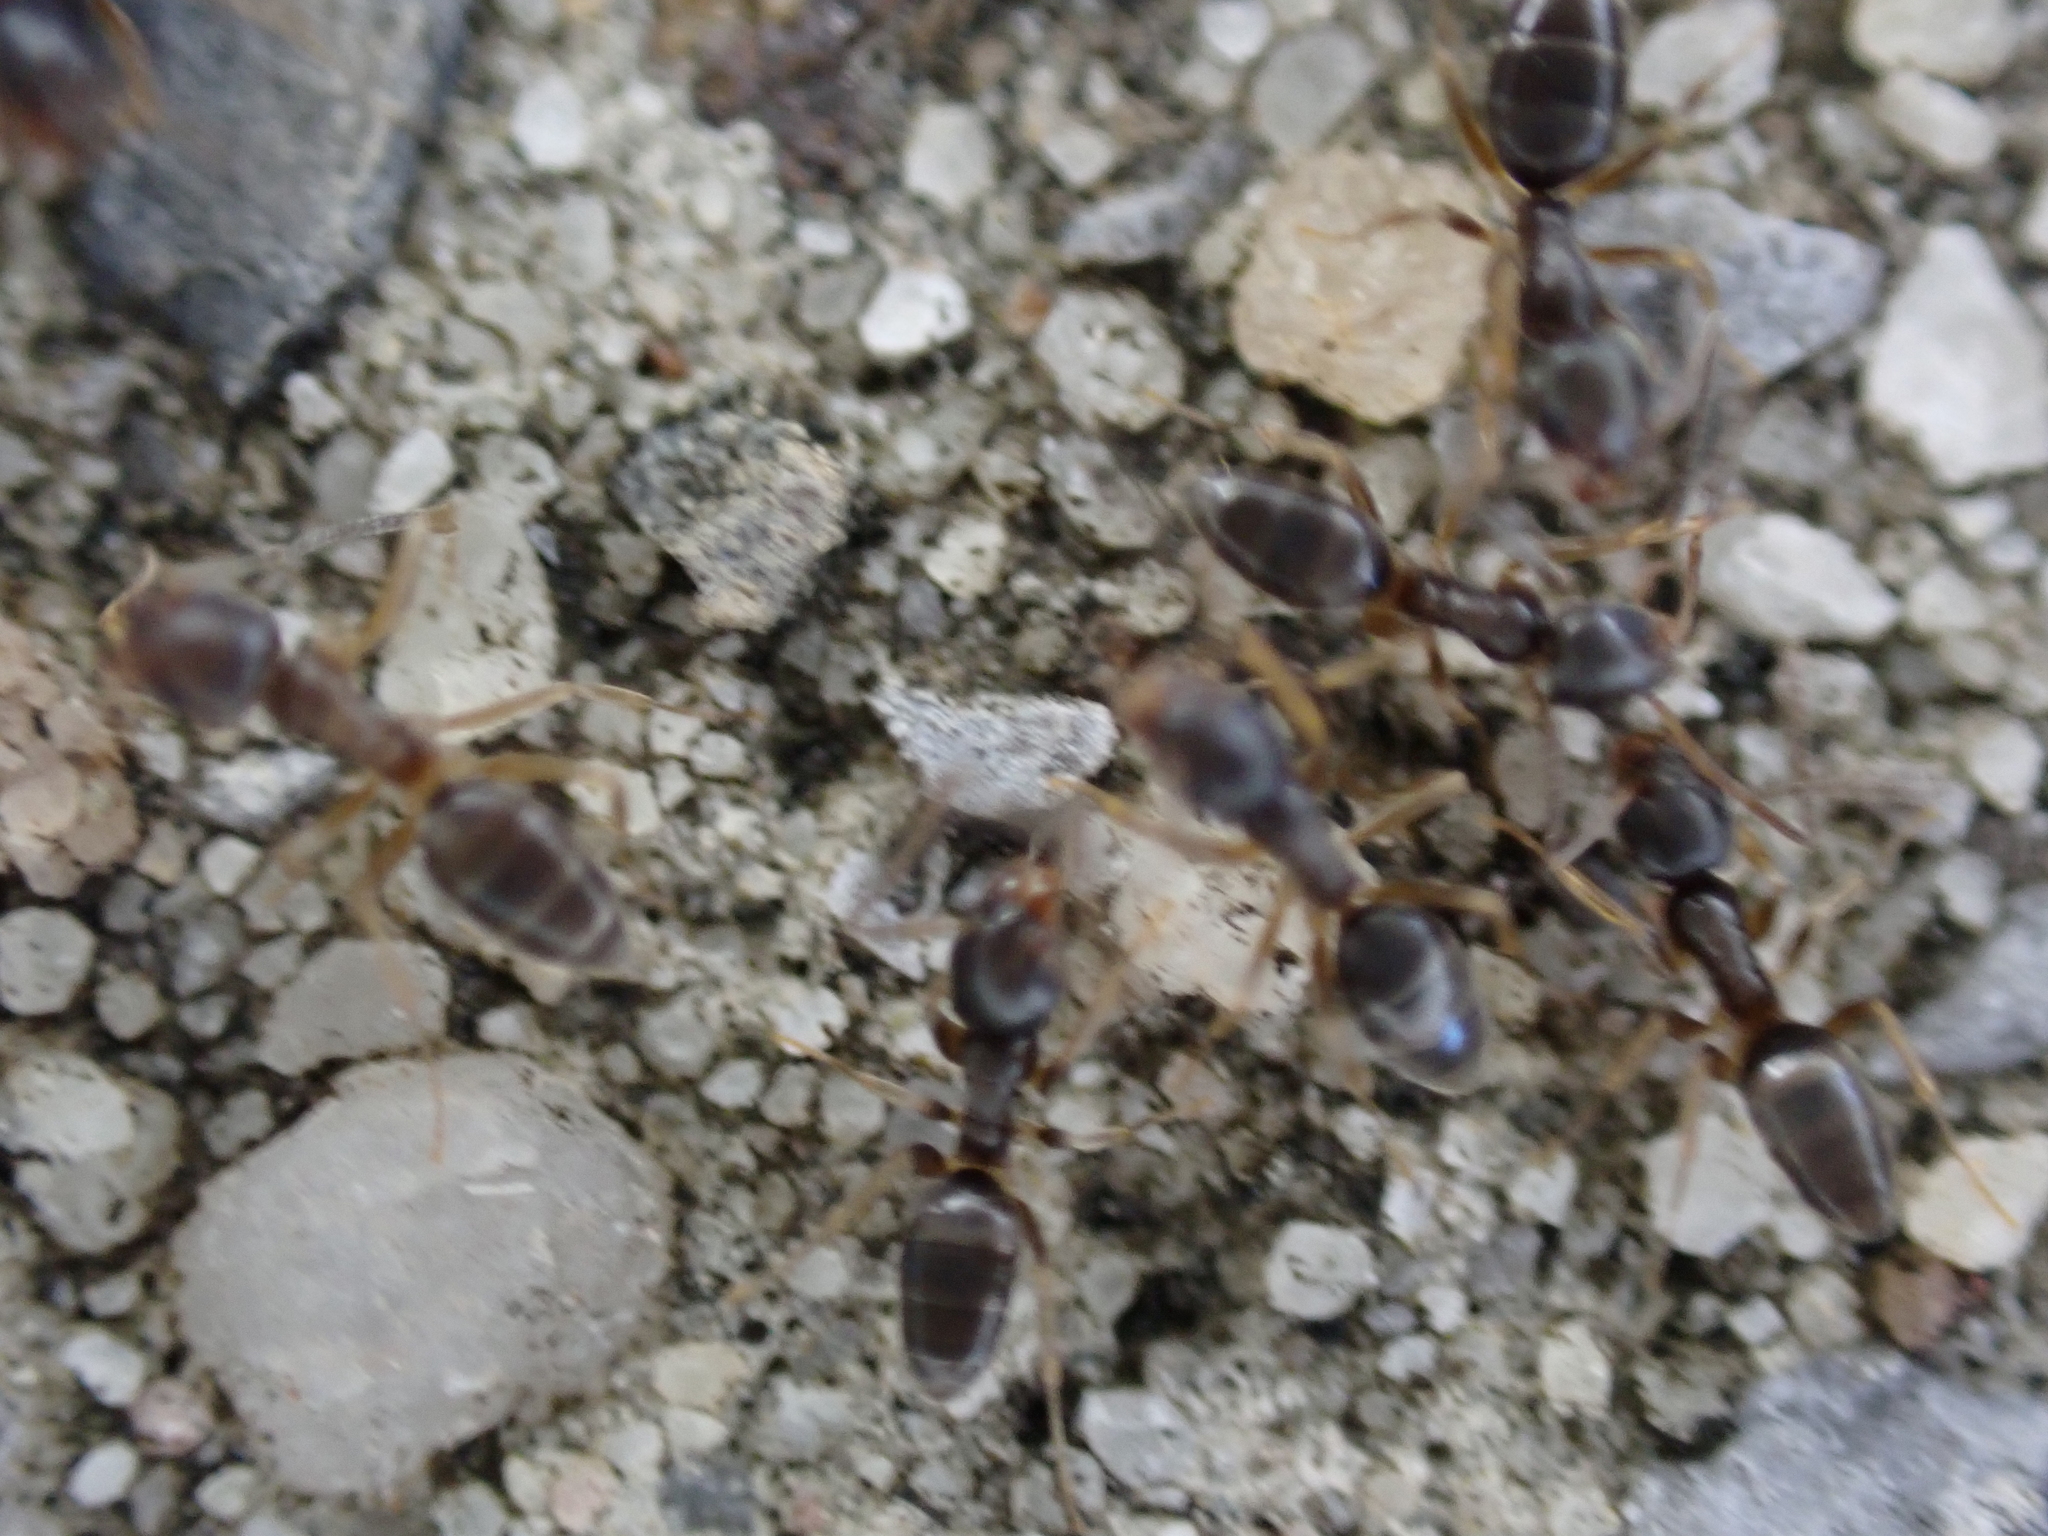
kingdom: Animalia
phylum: Arthropoda
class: Insecta
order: Hymenoptera
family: Formicidae
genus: Tapinoma
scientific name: Tapinoma sessile
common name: Odorous house ant
